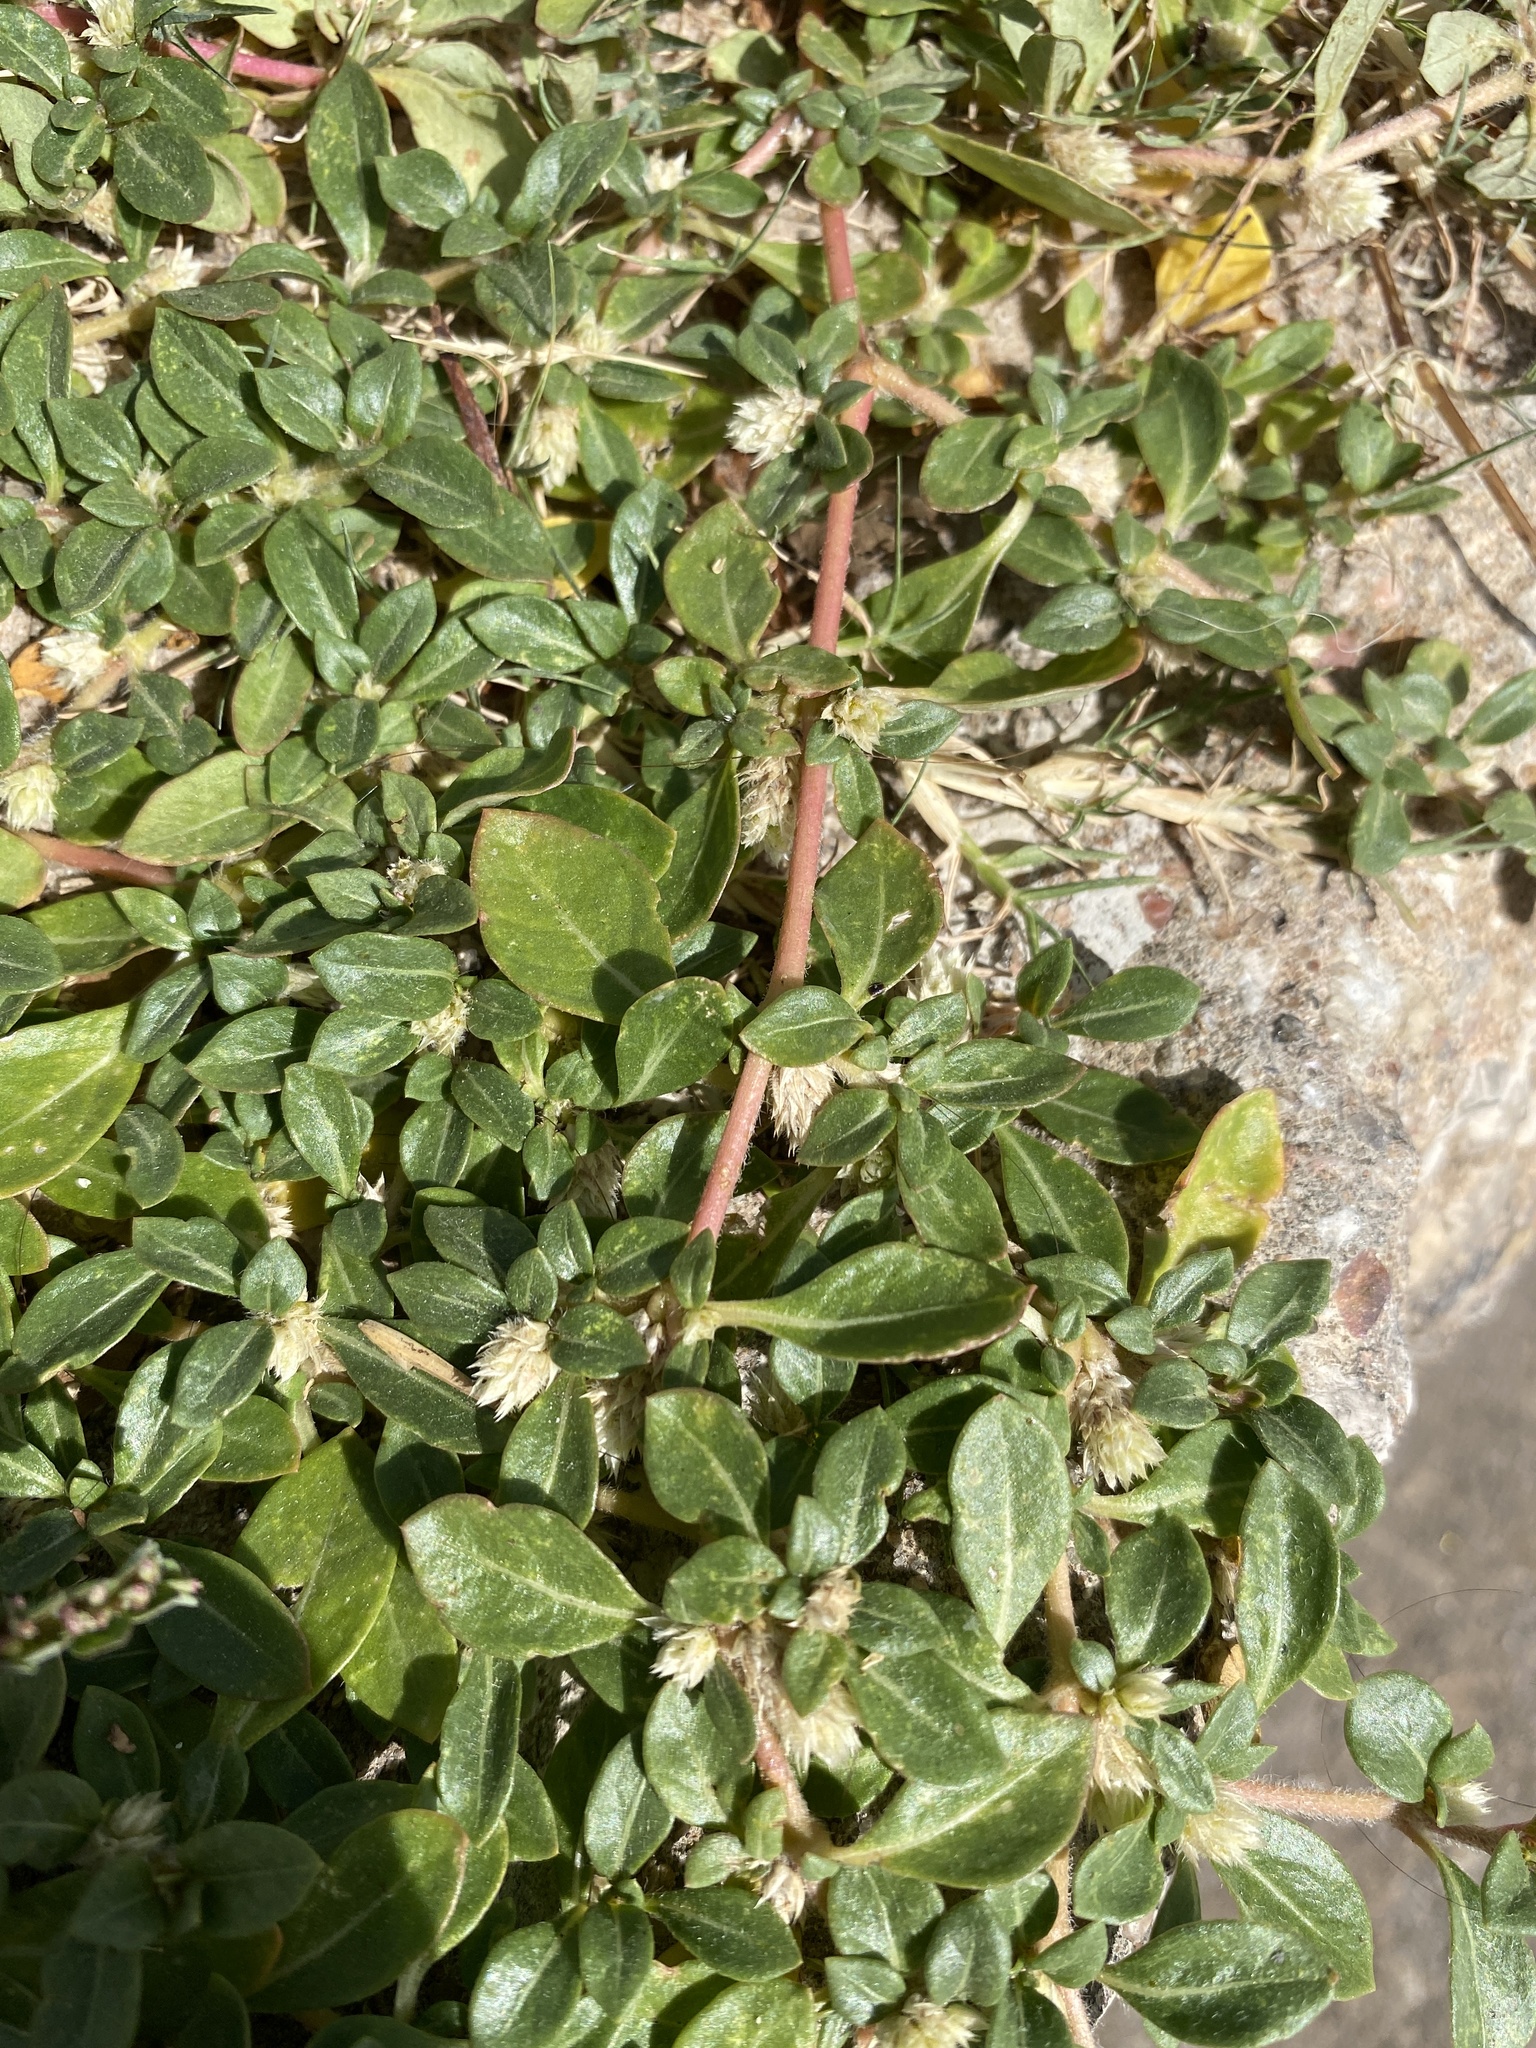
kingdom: Plantae
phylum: Tracheophyta
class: Magnoliopsida
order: Caryophyllales
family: Amaranthaceae
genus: Alternanthera
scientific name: Alternanthera caracasana
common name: Washerwoman
